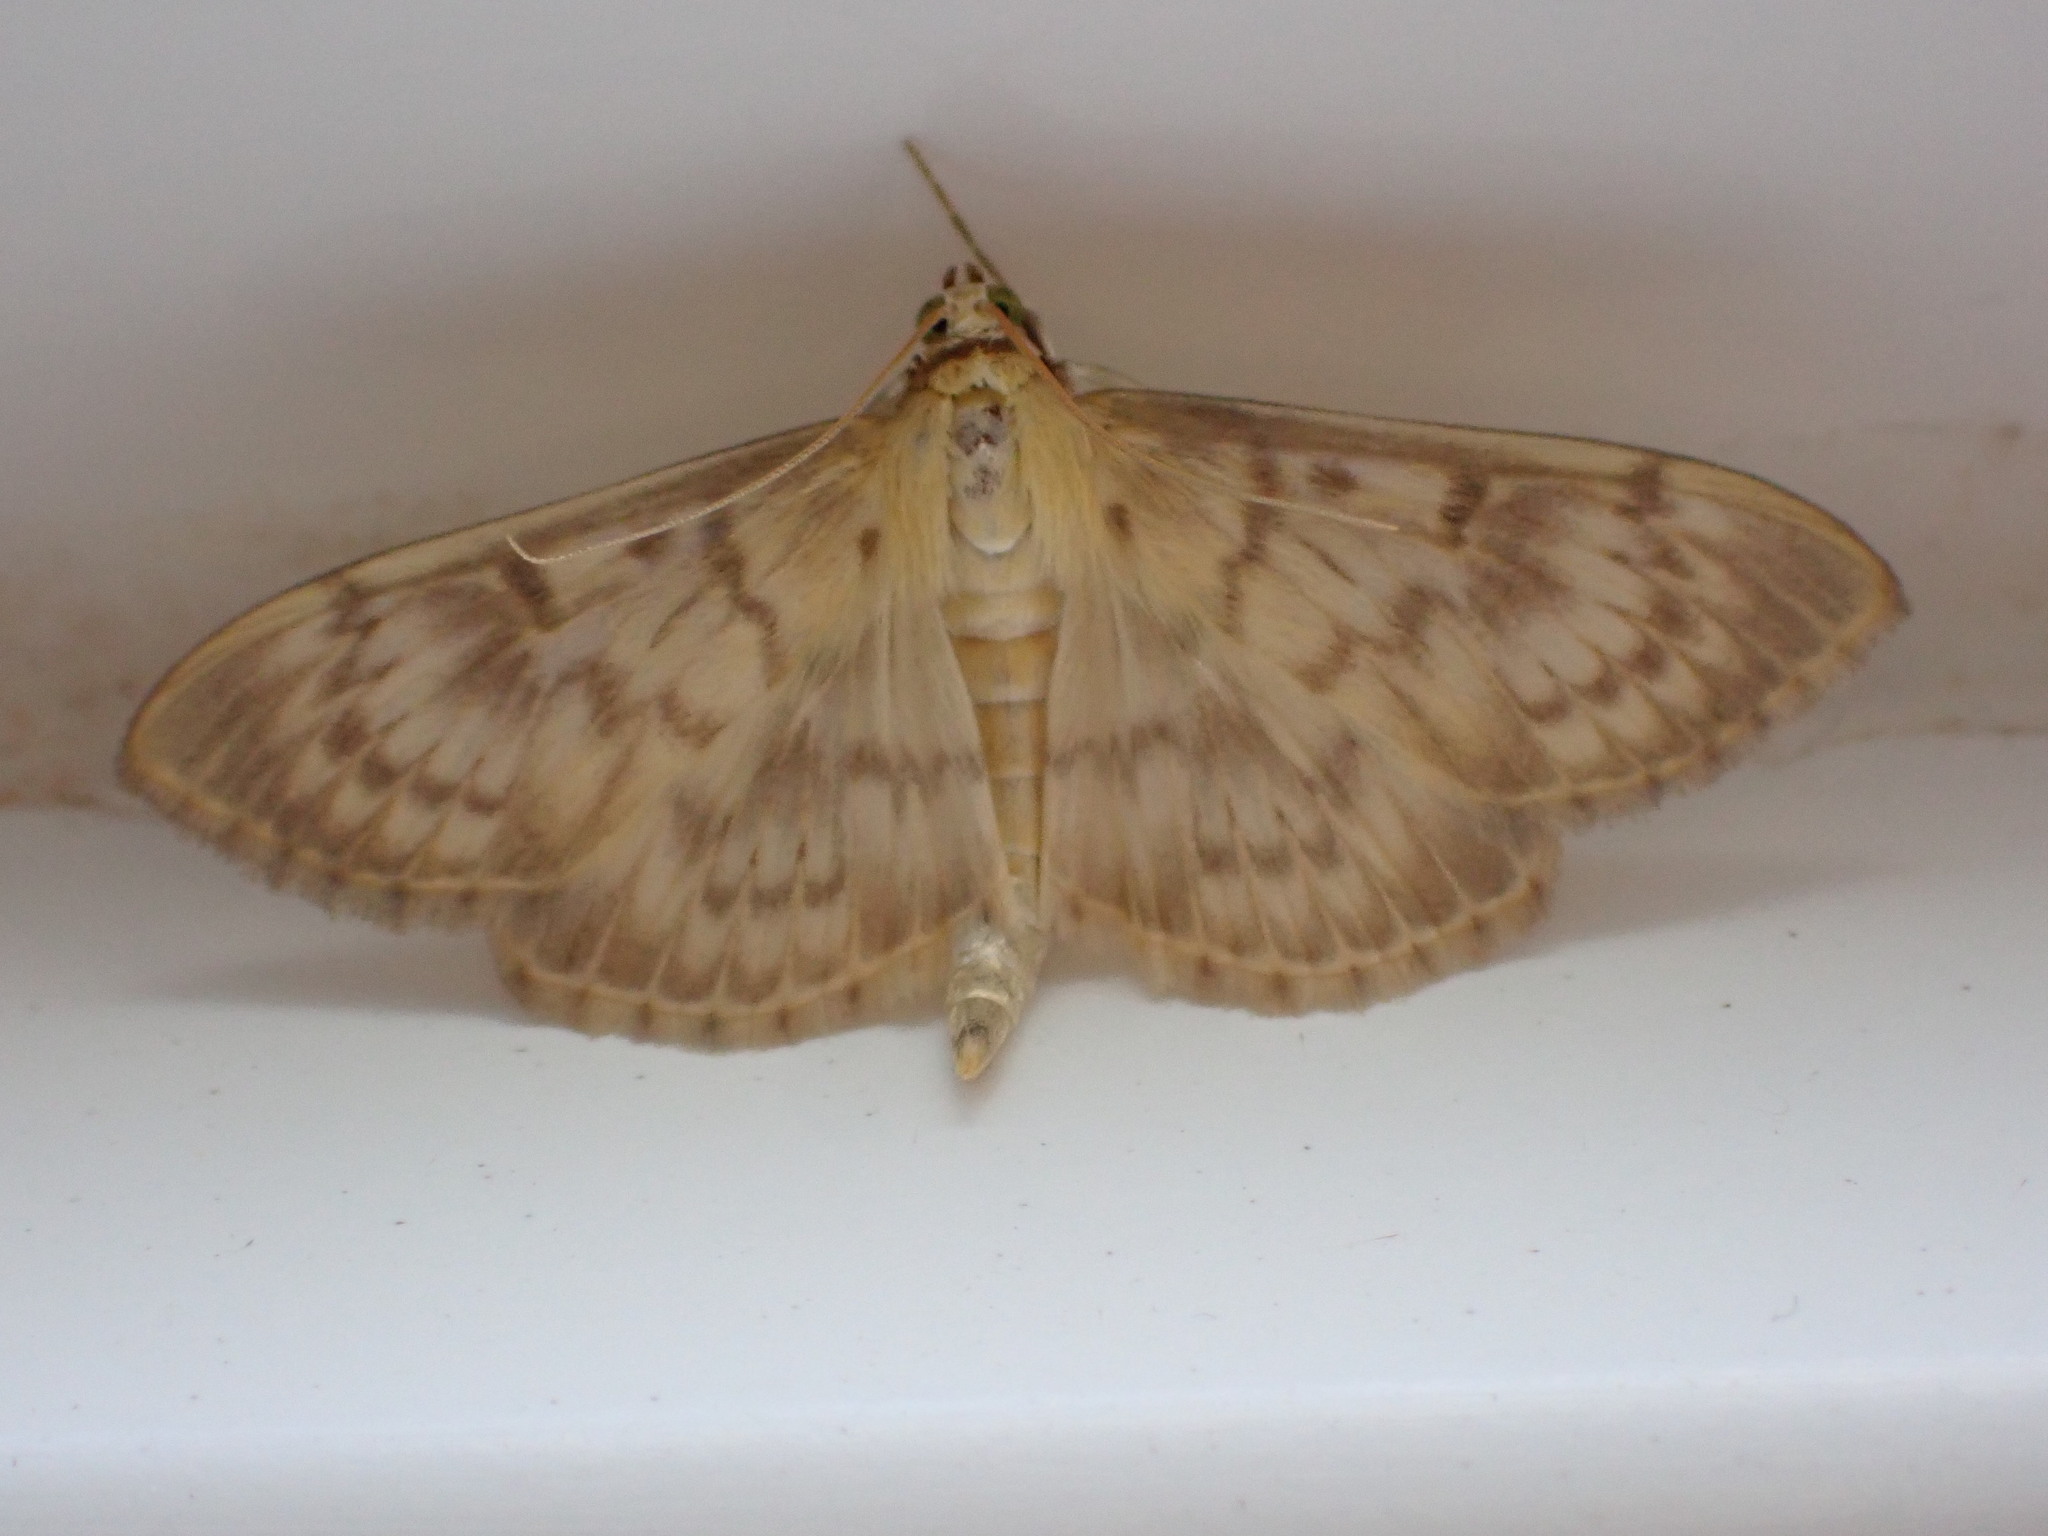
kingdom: Animalia
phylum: Arthropoda
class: Insecta
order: Lepidoptera
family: Crambidae
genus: Patania
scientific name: Patania ruralis
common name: Mother of pearl
